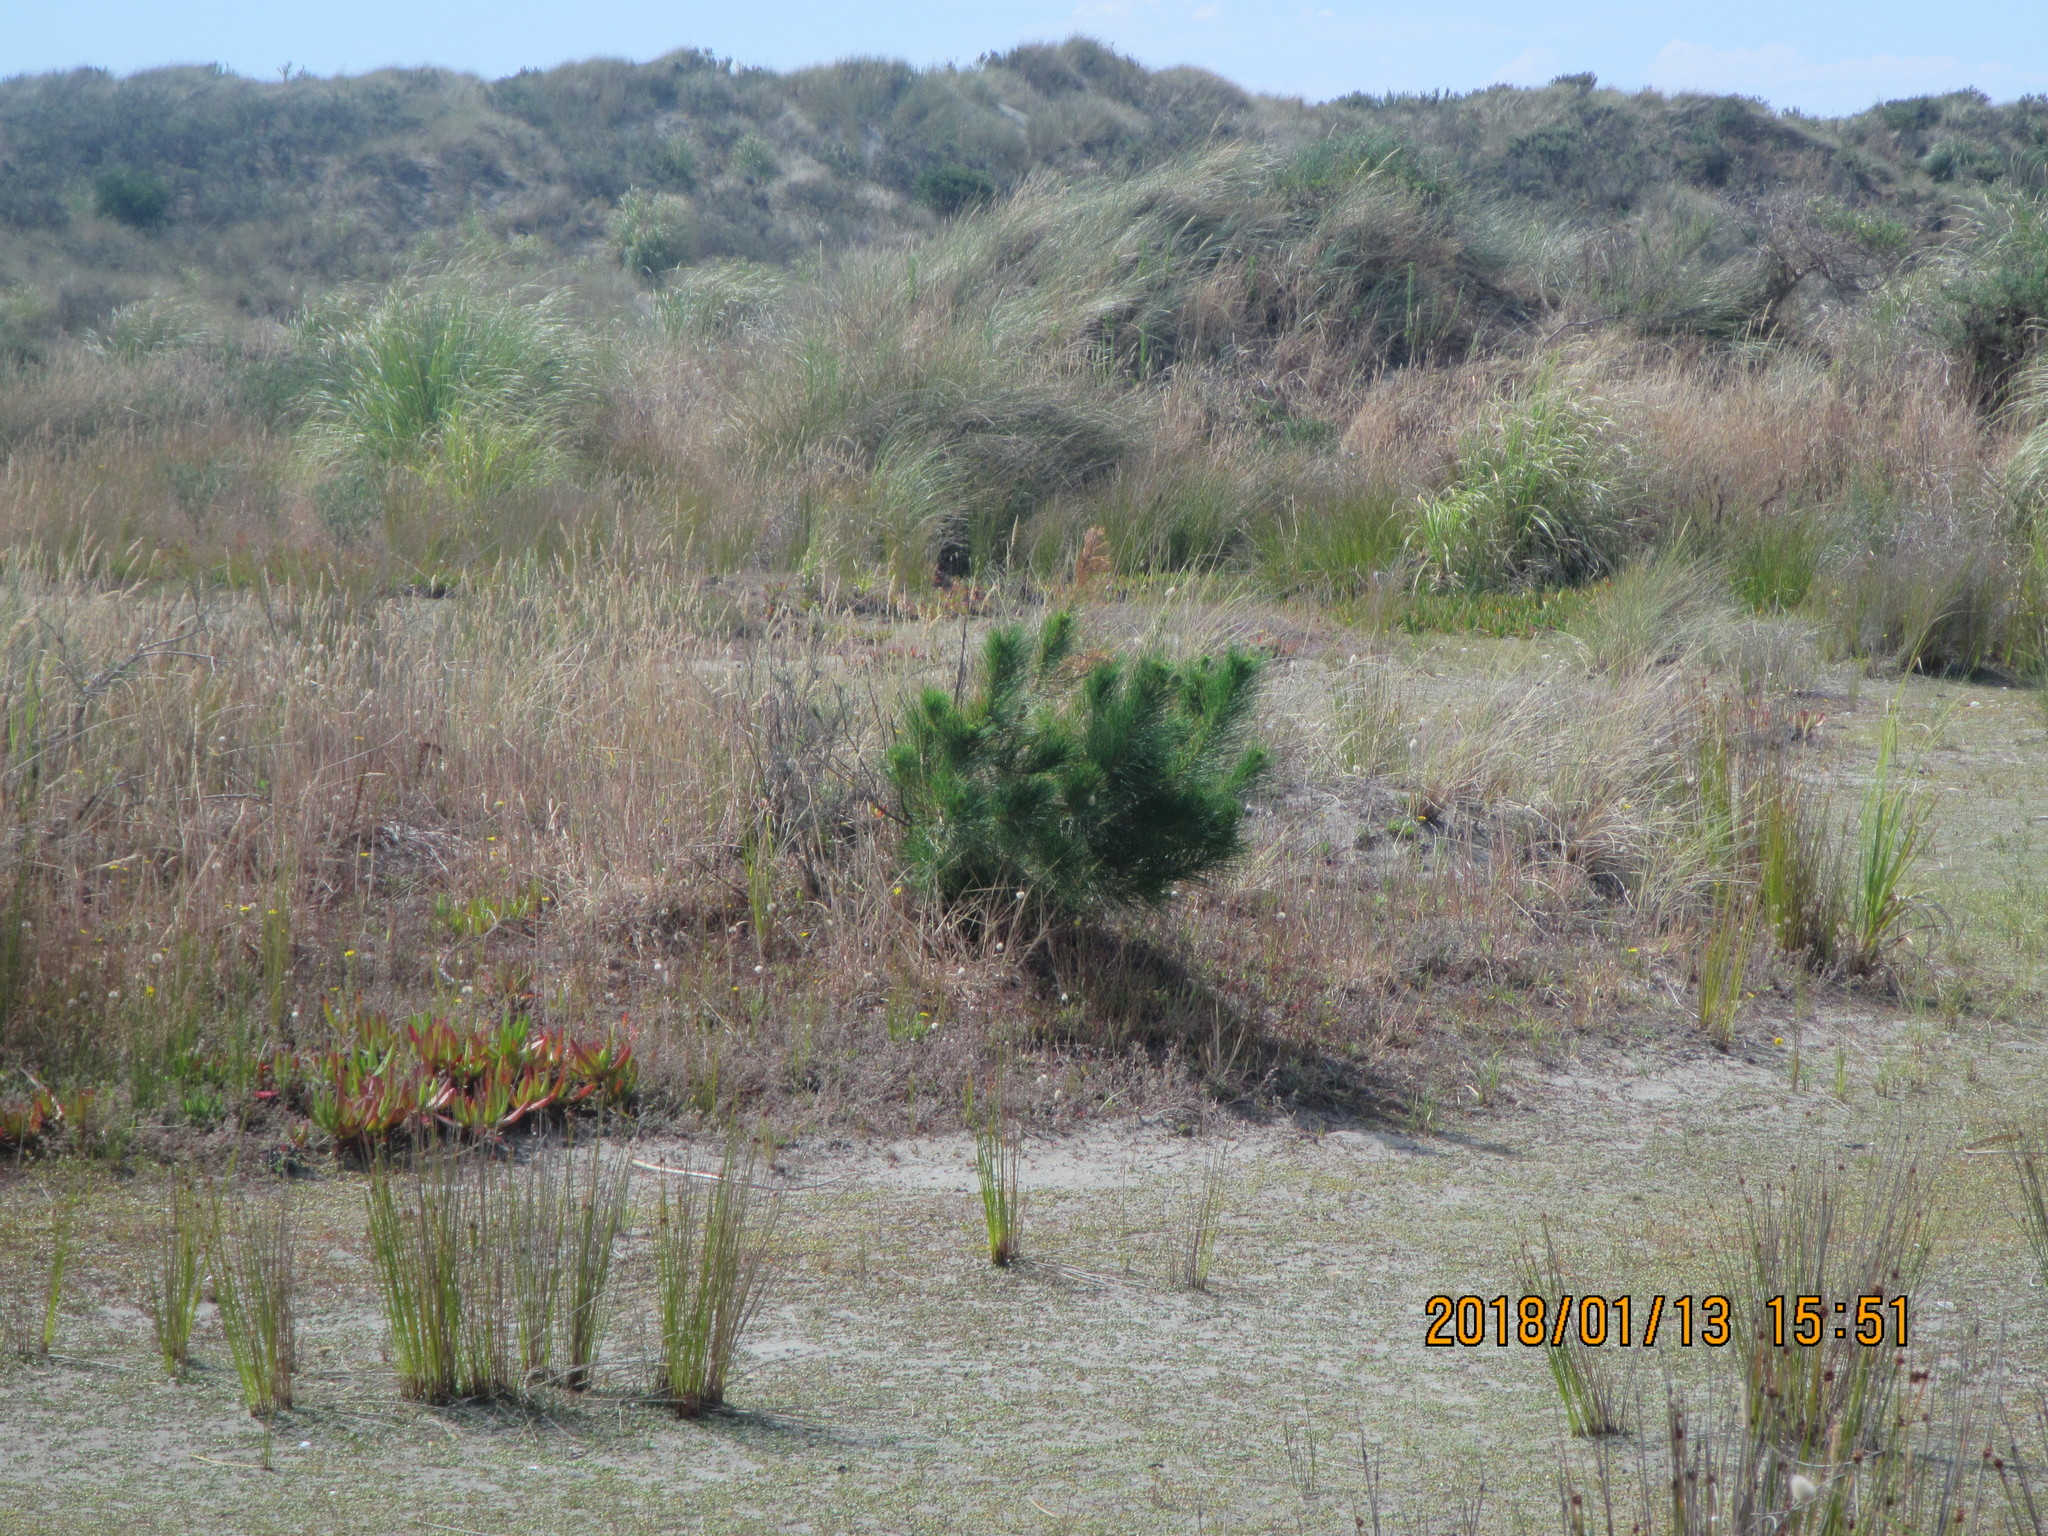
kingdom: Plantae
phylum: Tracheophyta
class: Pinopsida
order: Pinales
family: Pinaceae
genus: Pinus
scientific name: Pinus radiata
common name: Monterey pine
